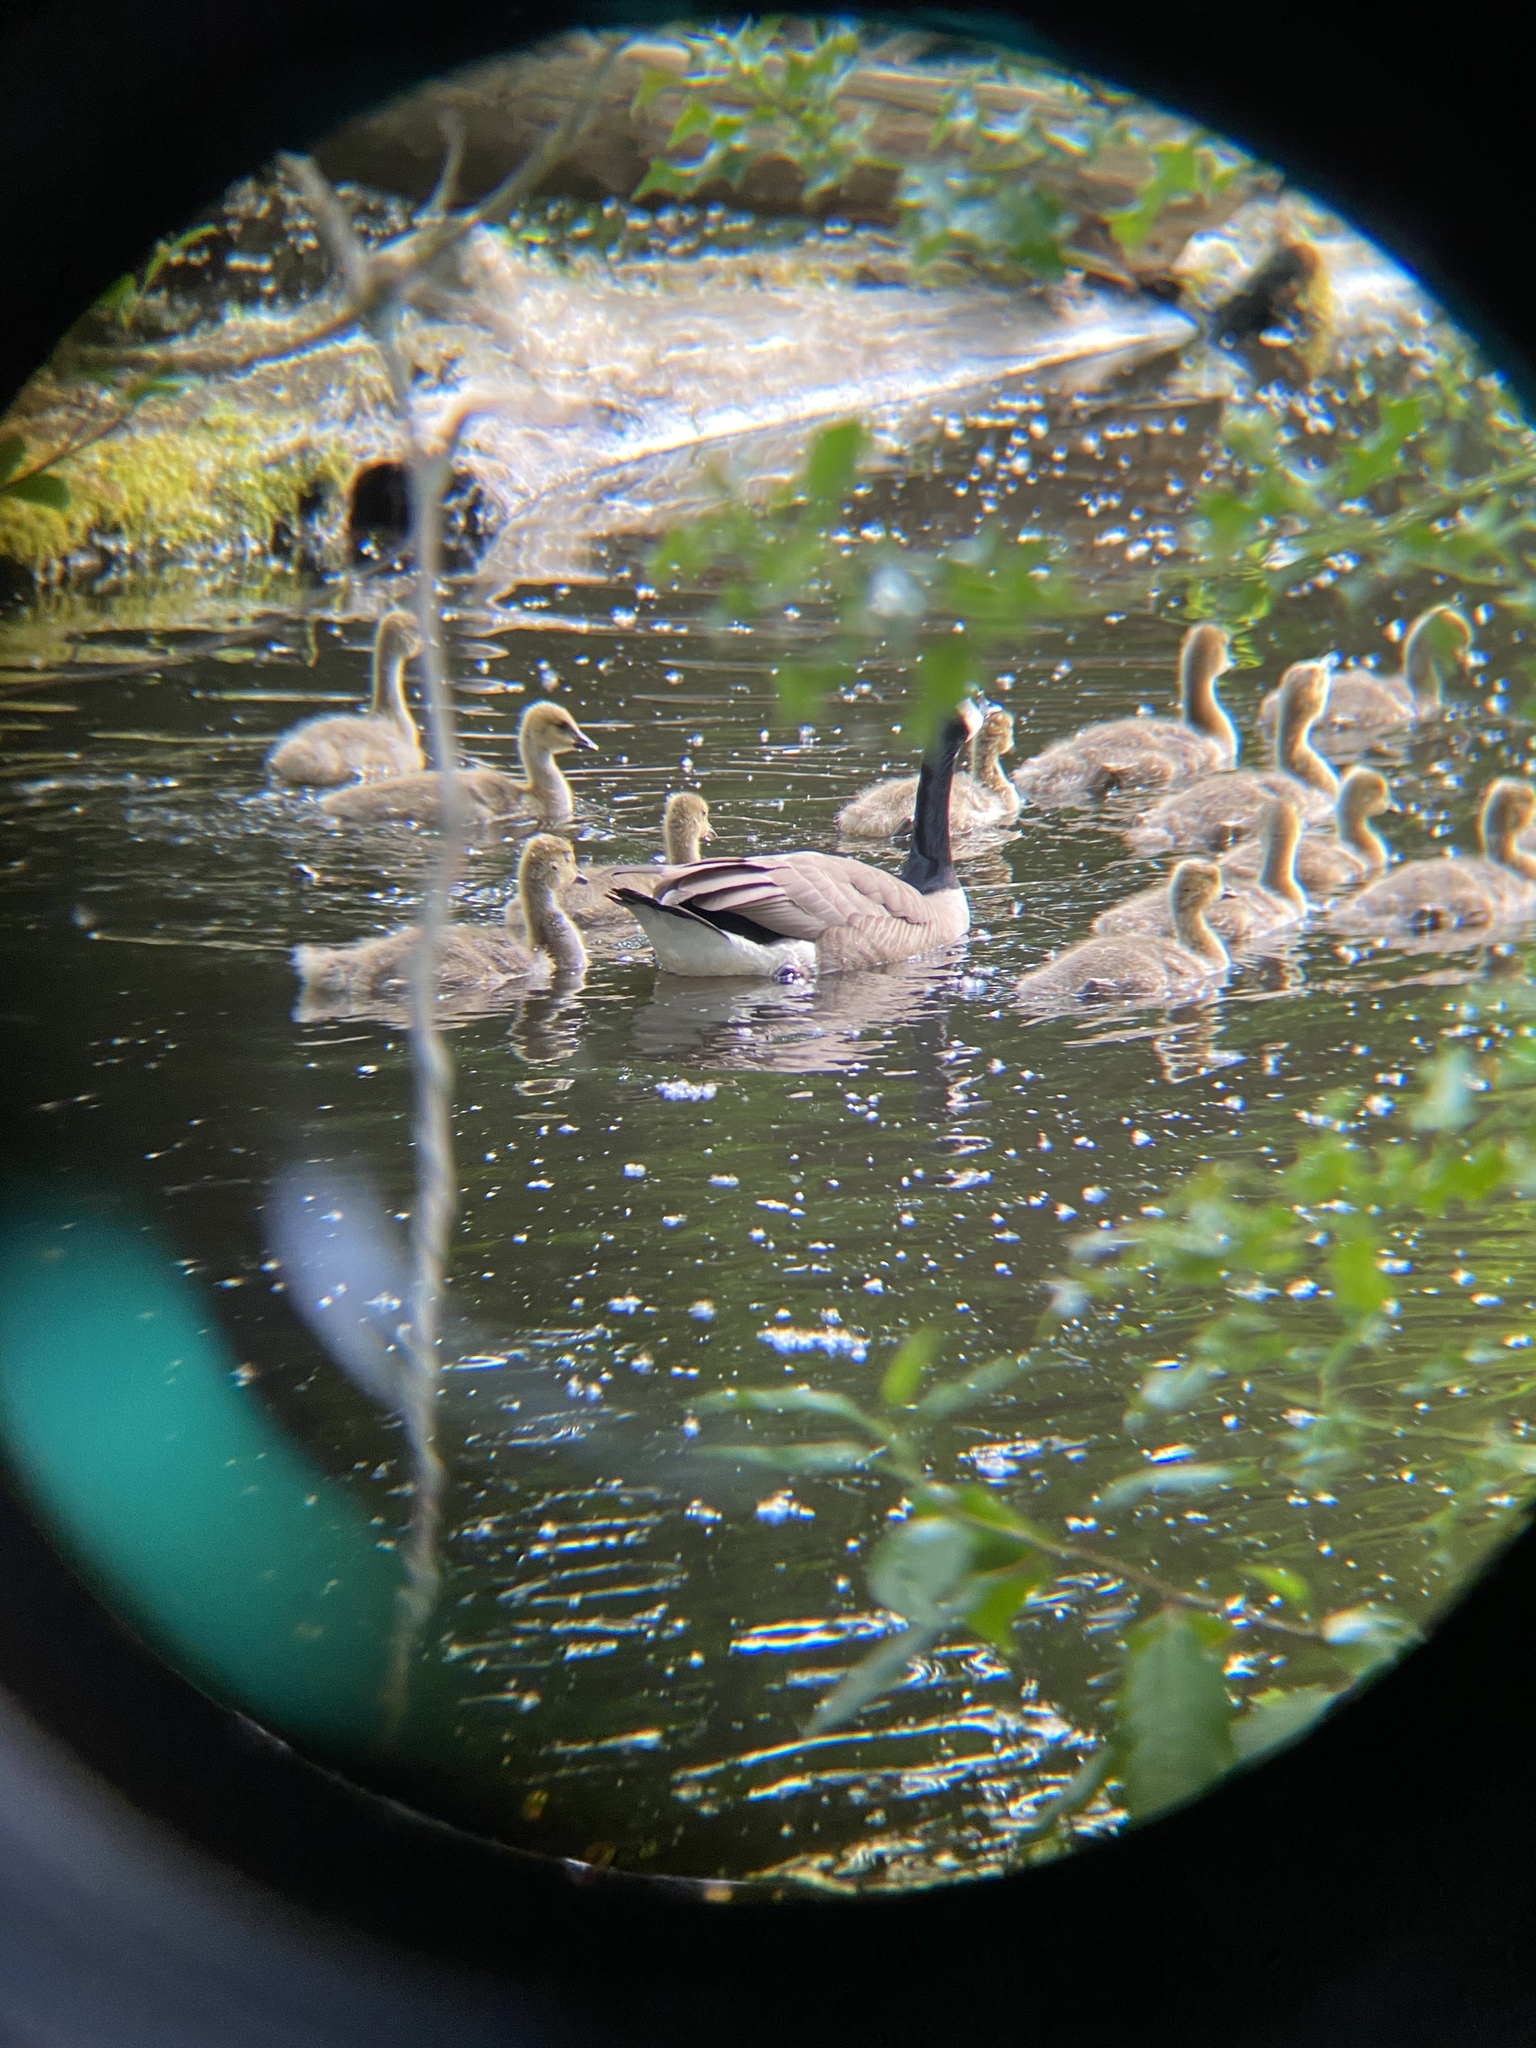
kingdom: Animalia
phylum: Chordata
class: Aves
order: Anseriformes
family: Anatidae
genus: Branta
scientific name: Branta canadensis
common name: Canada goose
